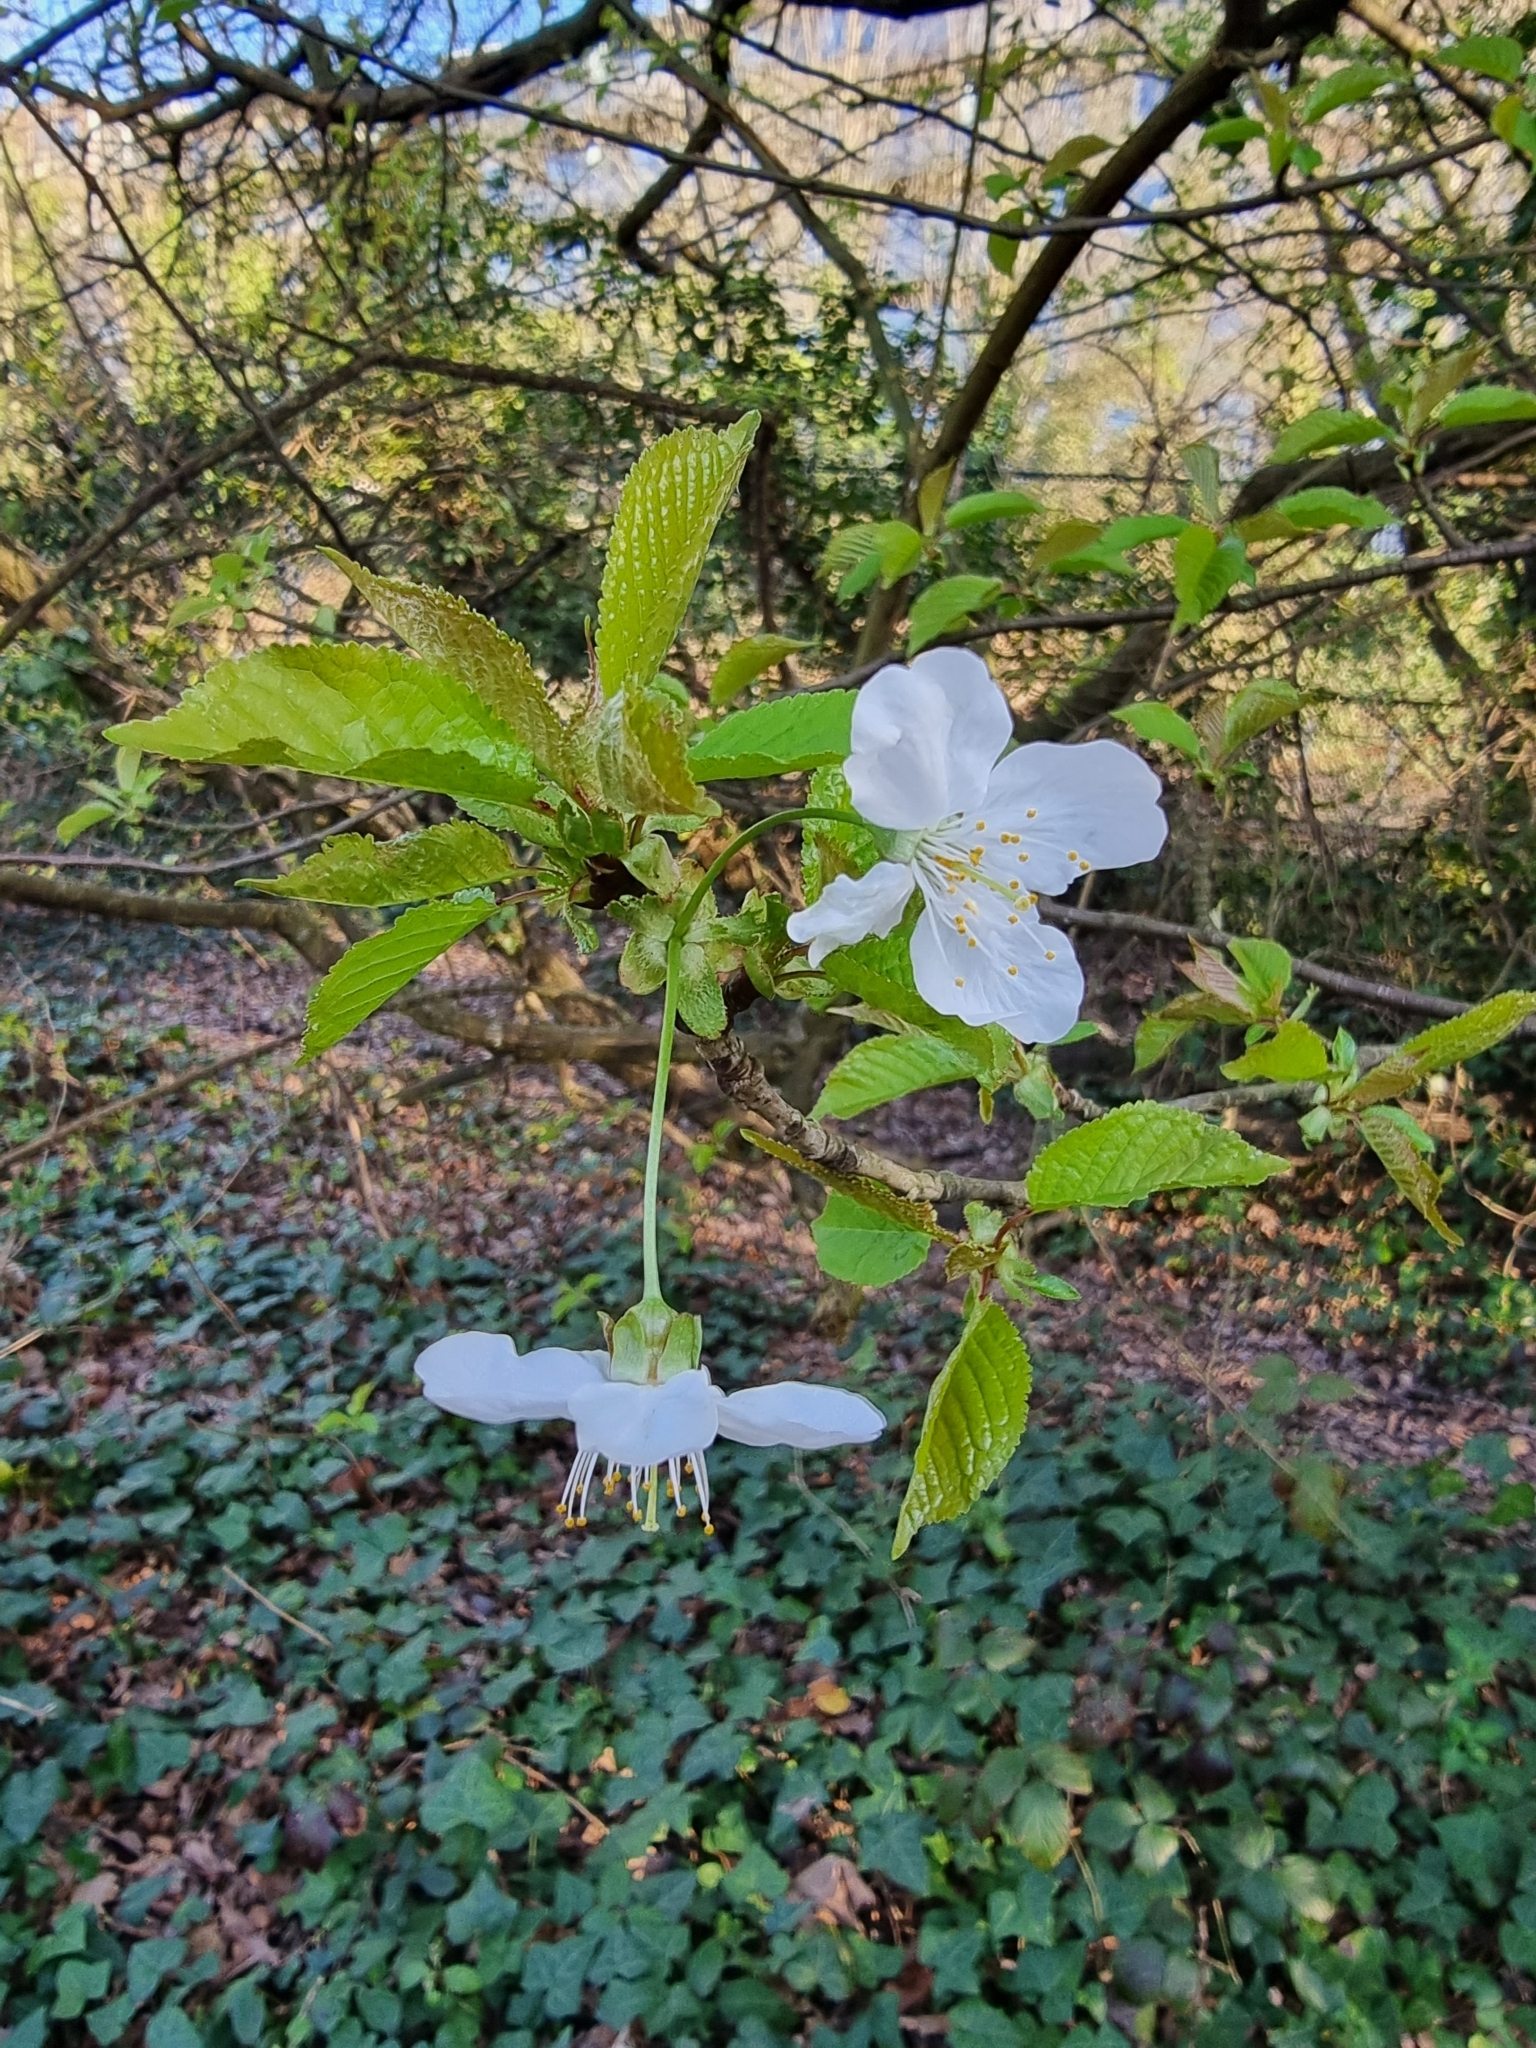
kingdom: Plantae
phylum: Tracheophyta
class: Magnoliopsida
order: Rosales
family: Rosaceae
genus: Prunus
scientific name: Prunus avium
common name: Sweet cherry
